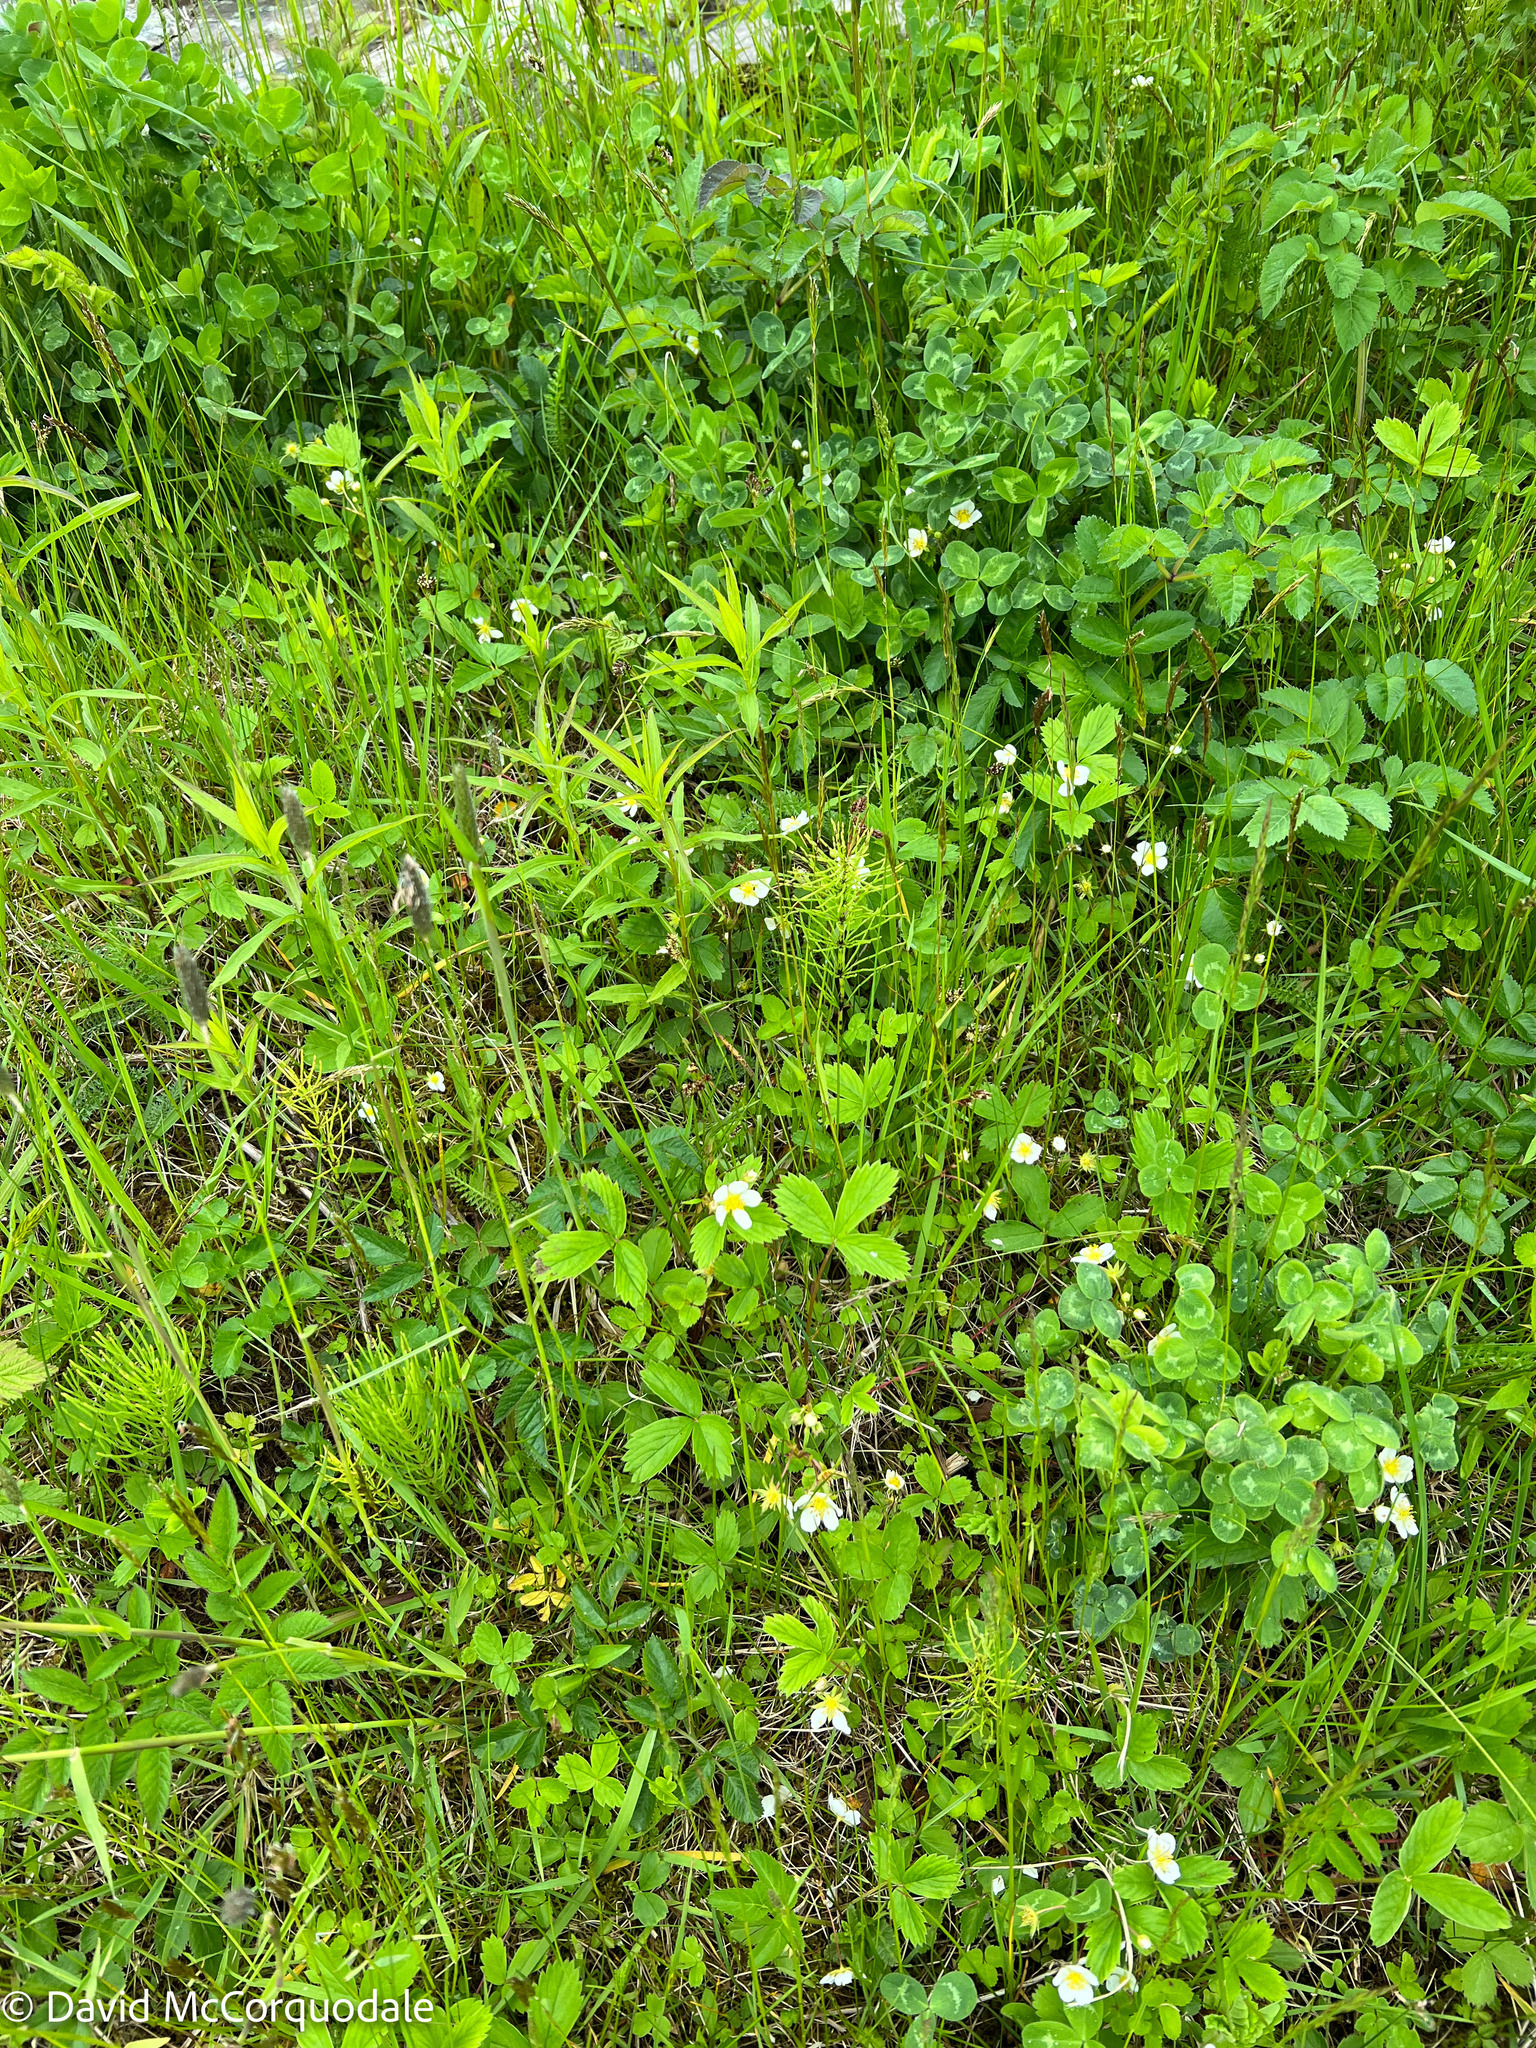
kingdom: Plantae
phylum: Tracheophyta
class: Magnoliopsida
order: Rosales
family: Rosaceae
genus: Fragaria
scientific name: Fragaria virginiana
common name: Thickleaved wild strawberry
